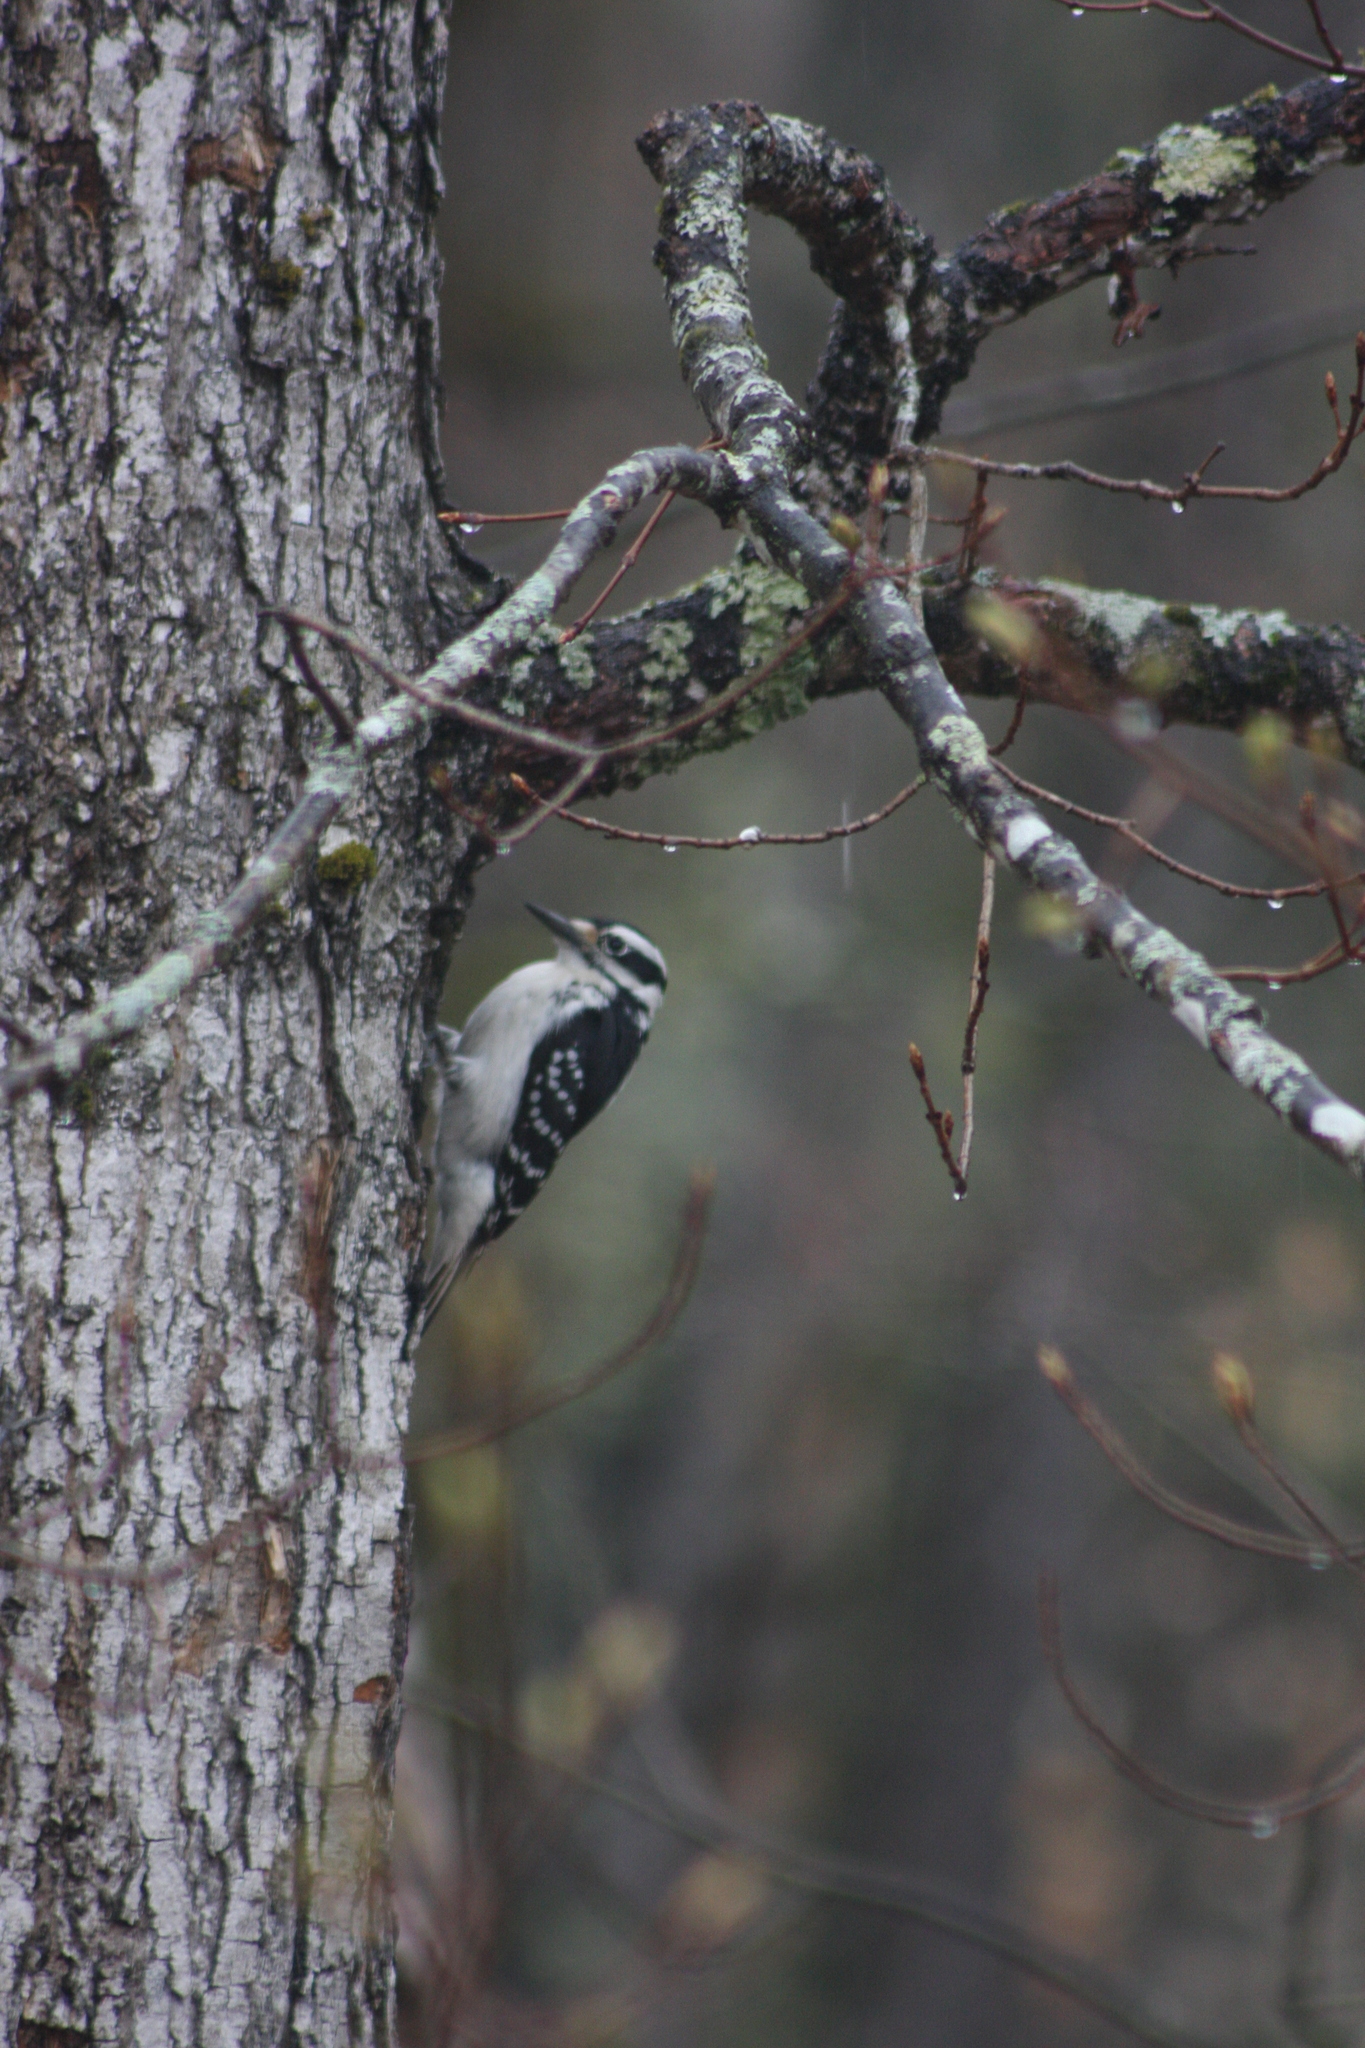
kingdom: Animalia
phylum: Chordata
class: Aves
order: Piciformes
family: Picidae
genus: Leuconotopicus
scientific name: Leuconotopicus villosus
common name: Hairy woodpecker
